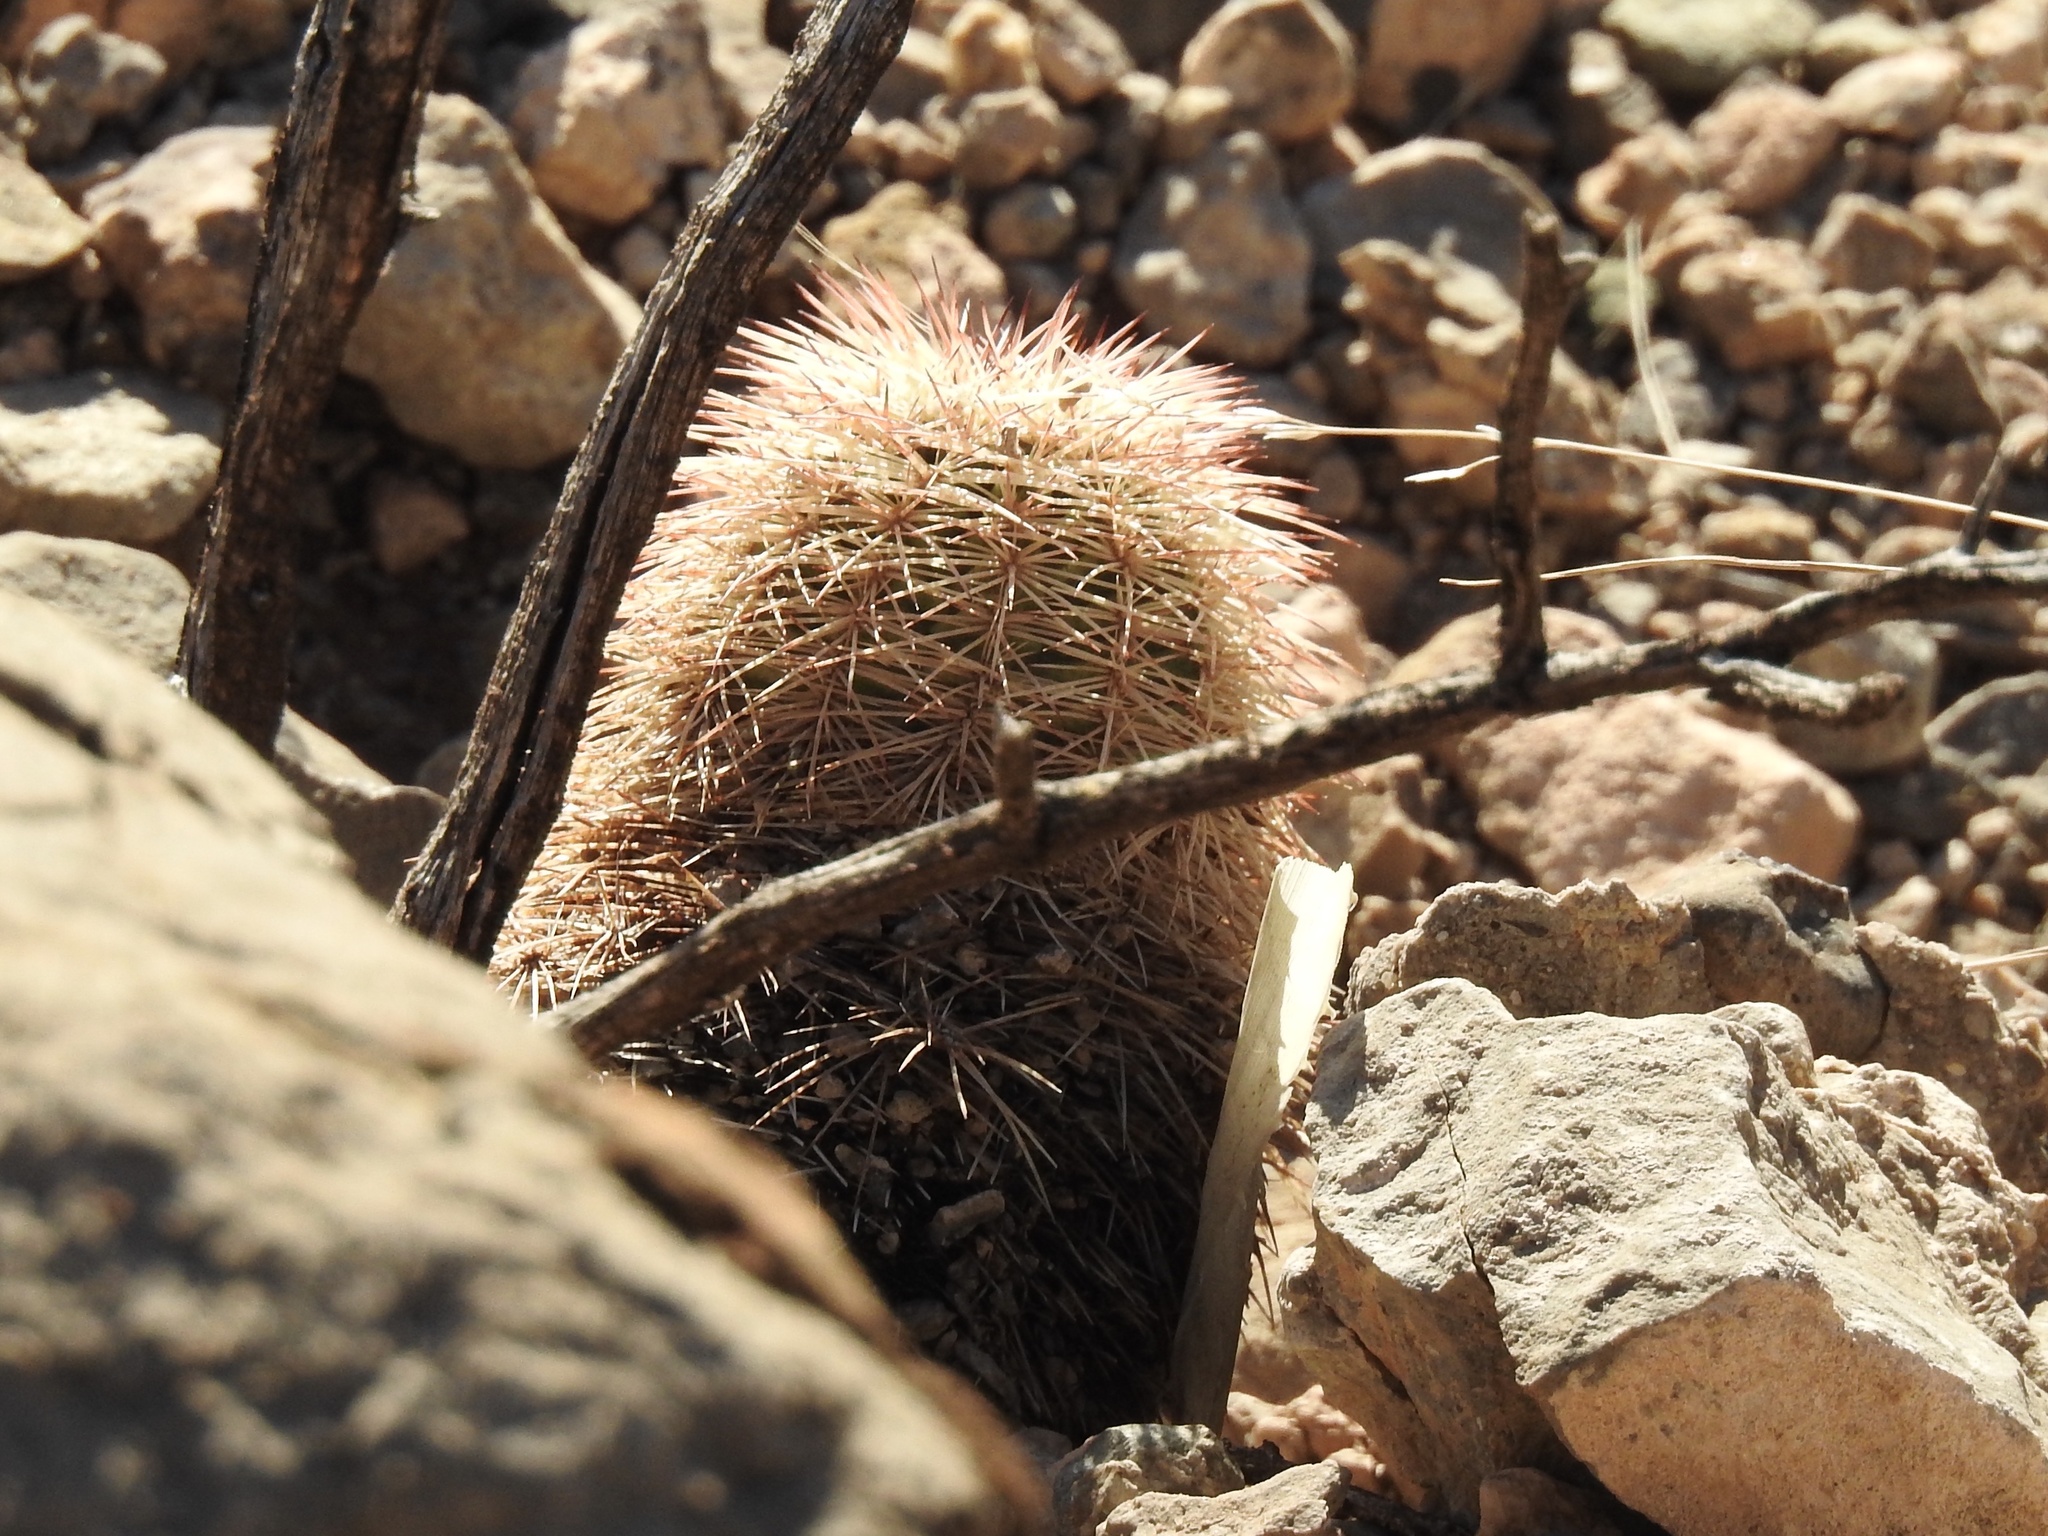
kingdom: Plantae
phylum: Tracheophyta
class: Magnoliopsida
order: Caryophyllales
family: Cactaceae
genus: Echinocereus
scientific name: Echinocereus dasyacanthus
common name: Spiny hedgehog cactus
